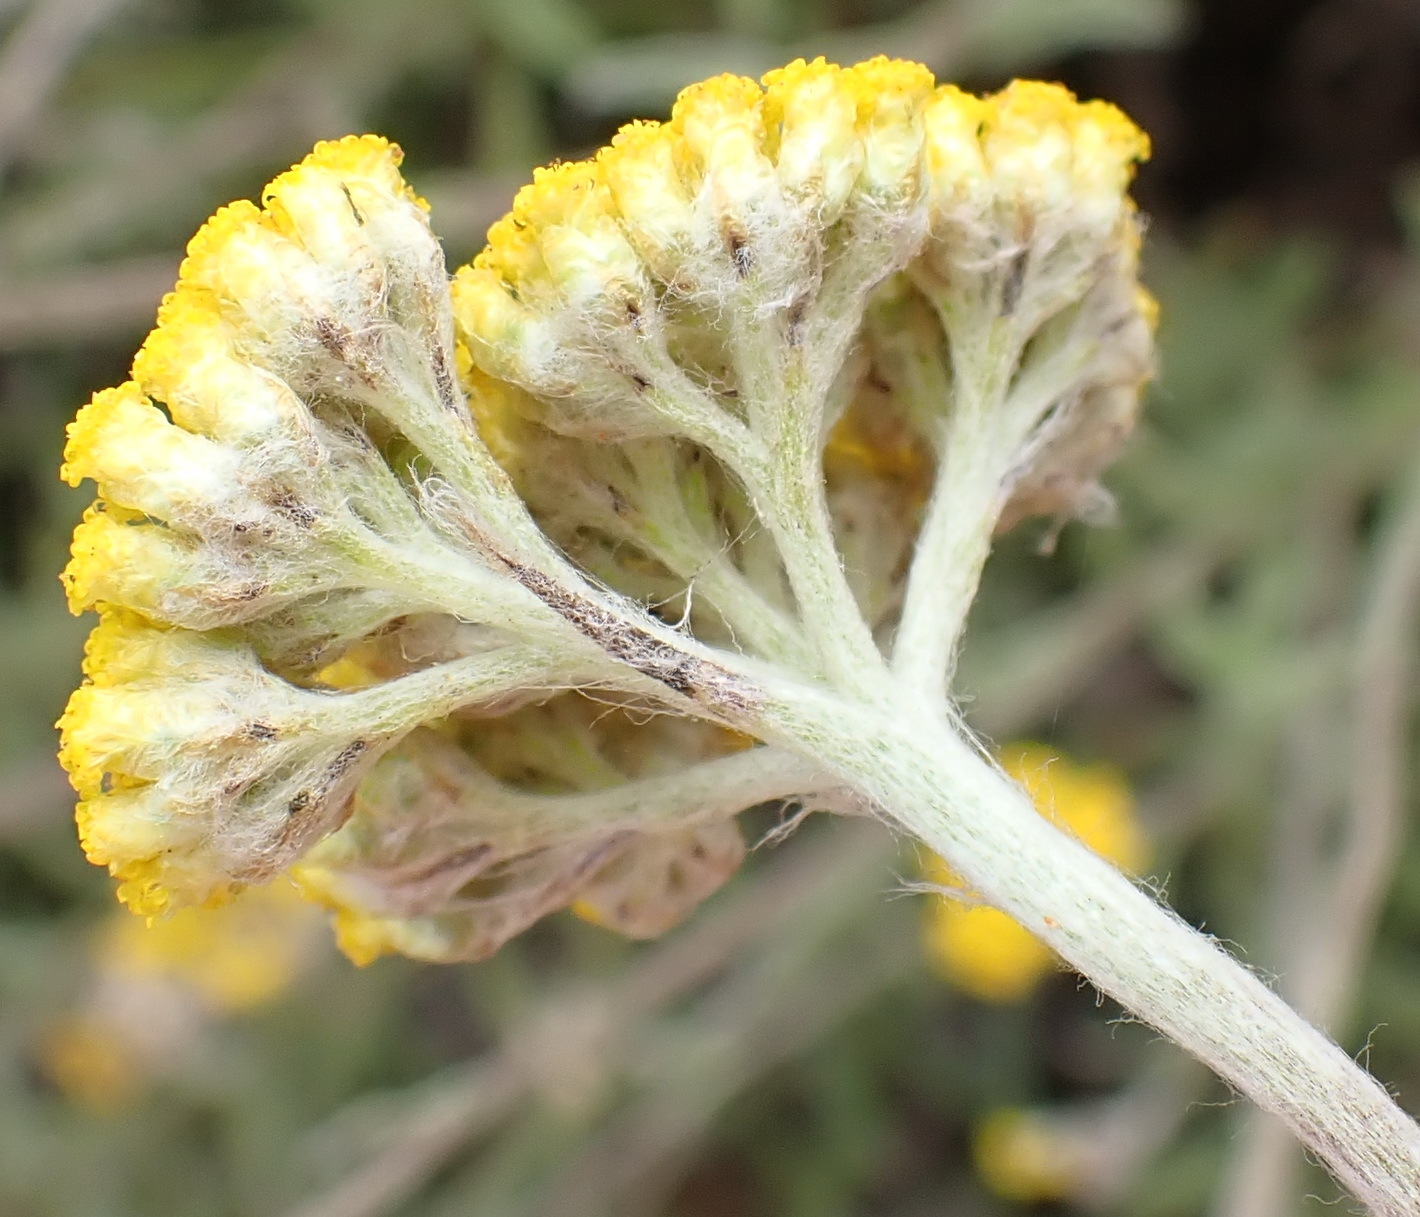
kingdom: Plantae
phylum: Tracheophyta
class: Magnoliopsida
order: Asterales
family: Asteraceae
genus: Helichrysum
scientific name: Helichrysum odoratissimum
